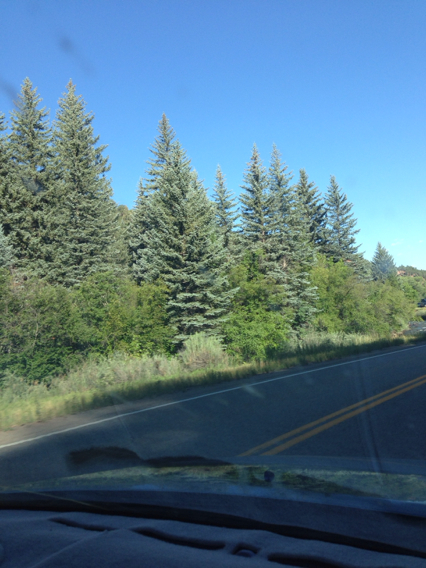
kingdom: Plantae
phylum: Tracheophyta
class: Pinopsida
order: Pinales
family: Pinaceae
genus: Picea
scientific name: Picea pungens
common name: Colorado spruce
